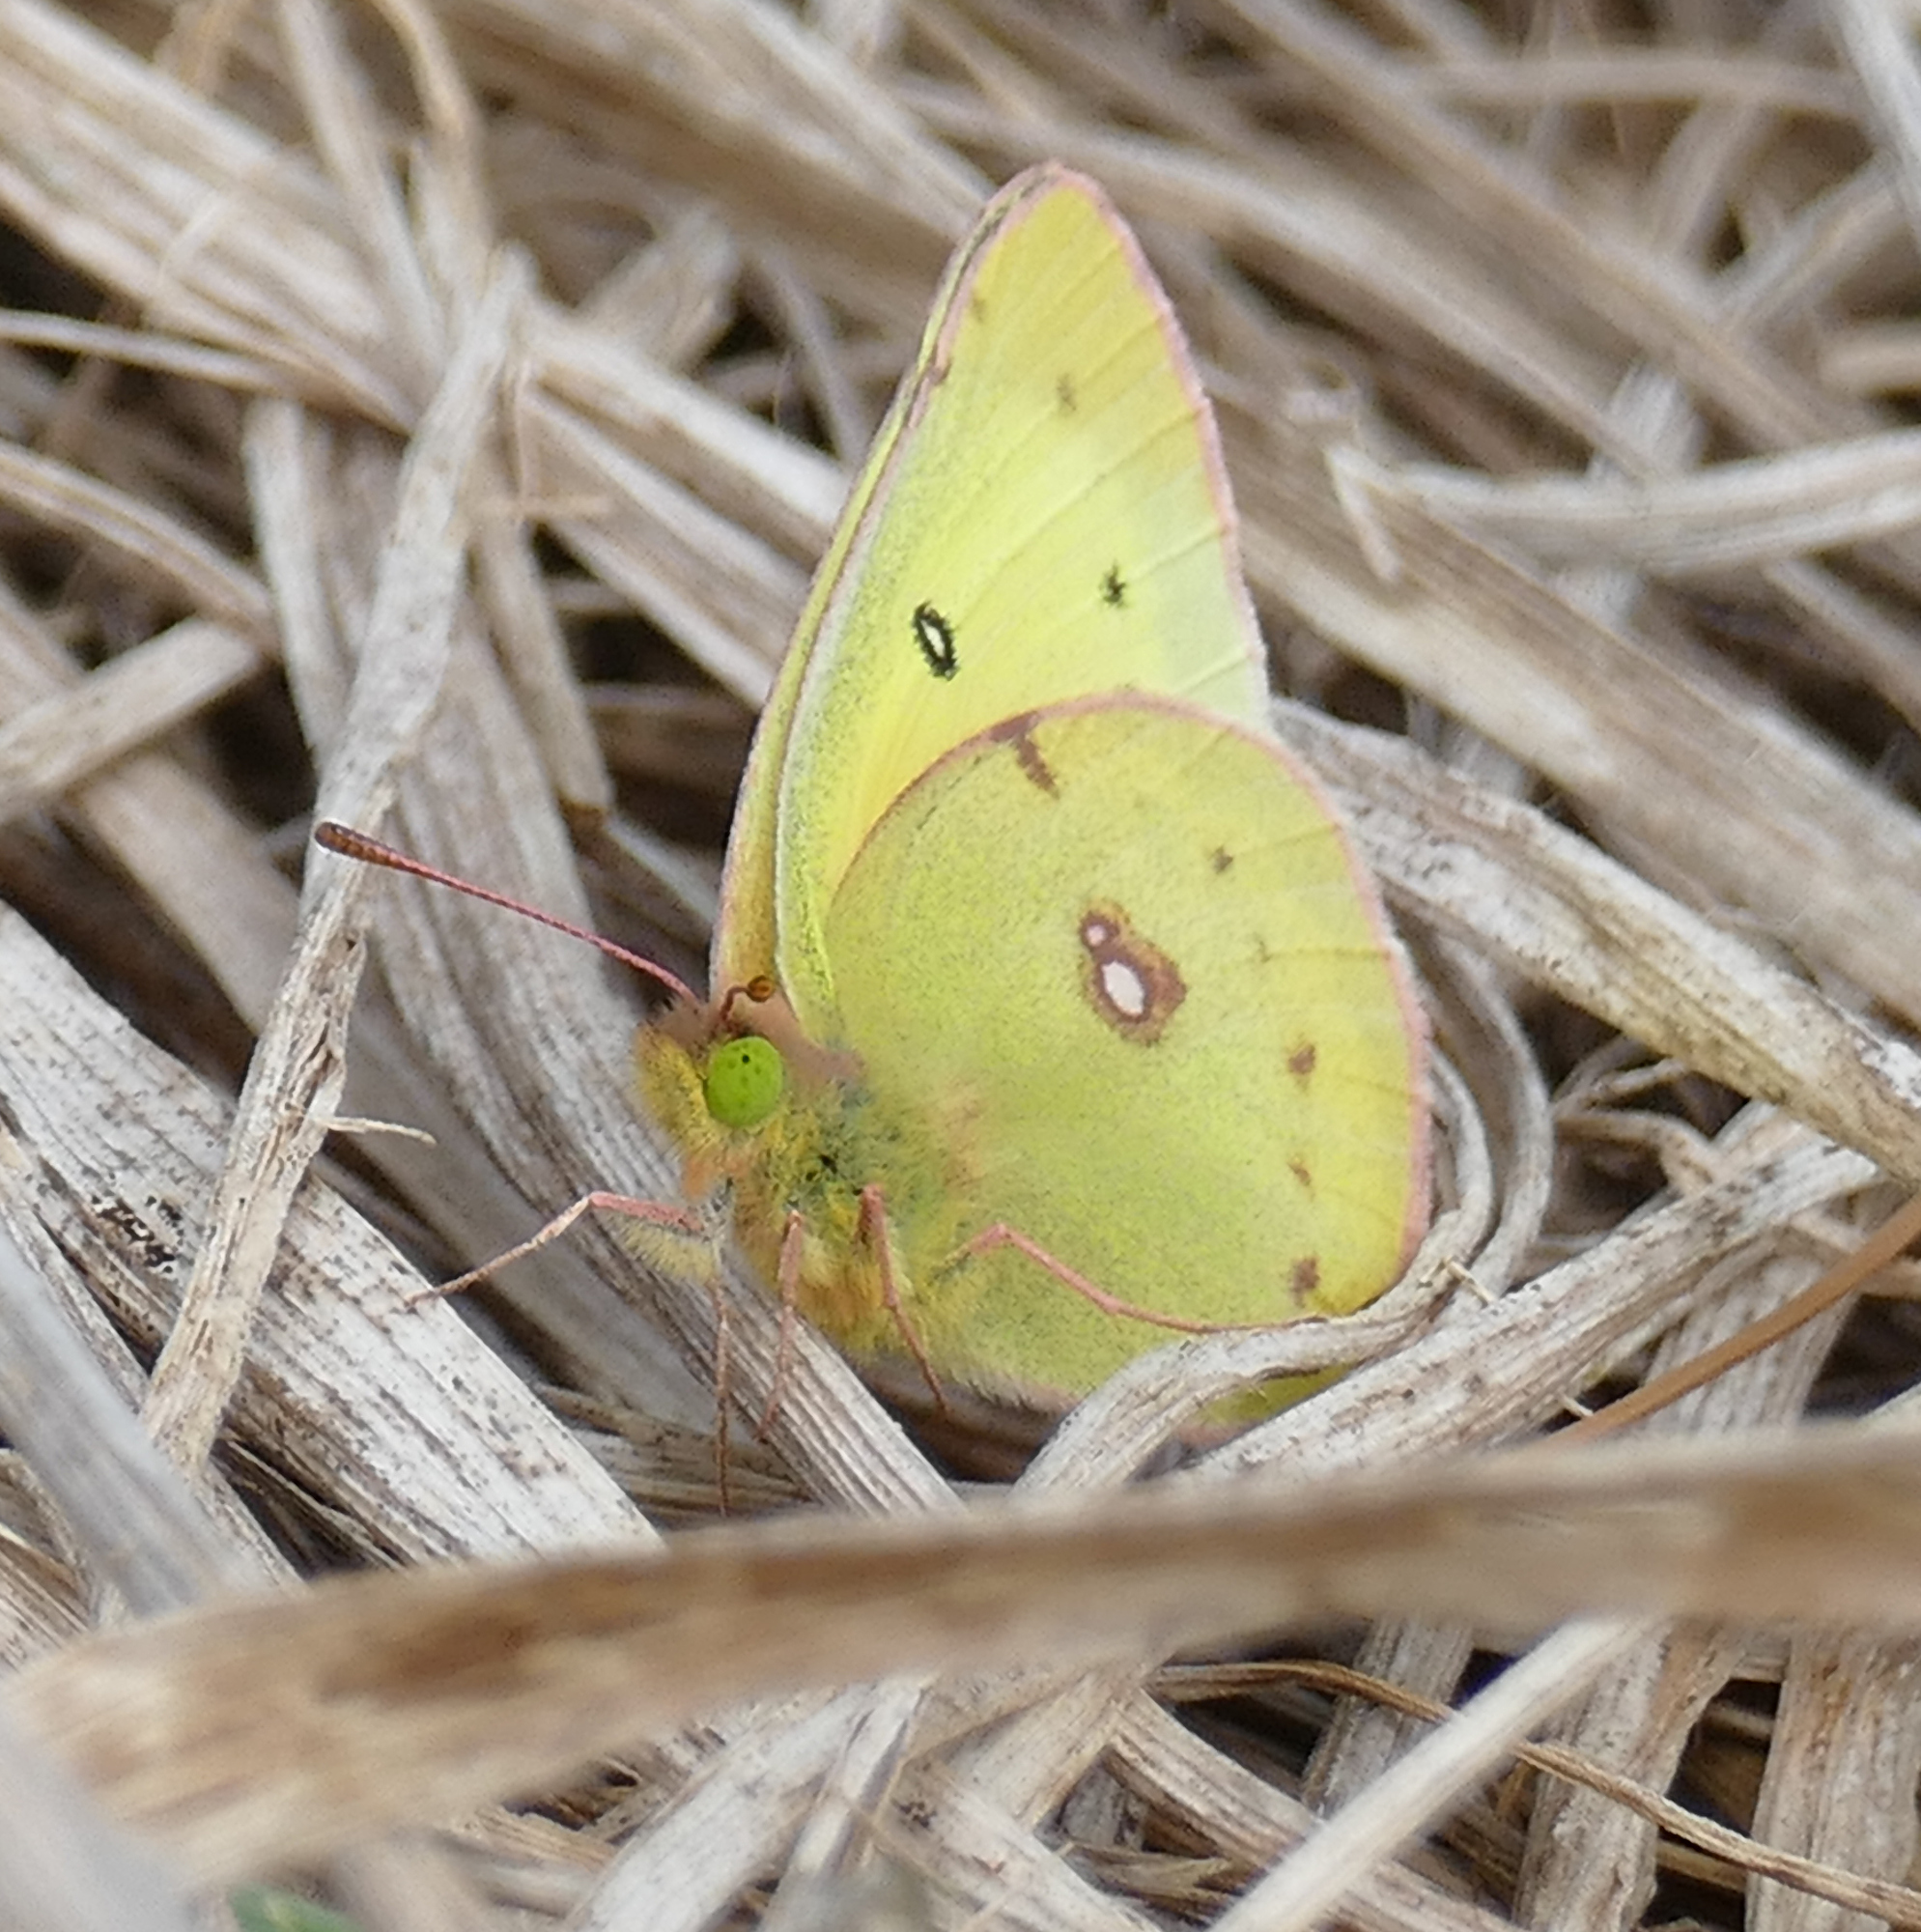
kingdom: Animalia
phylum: Arthropoda
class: Insecta
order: Lepidoptera
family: Pieridae
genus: Colias
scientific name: Colias eurytheme
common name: Alfalfa butterfly
